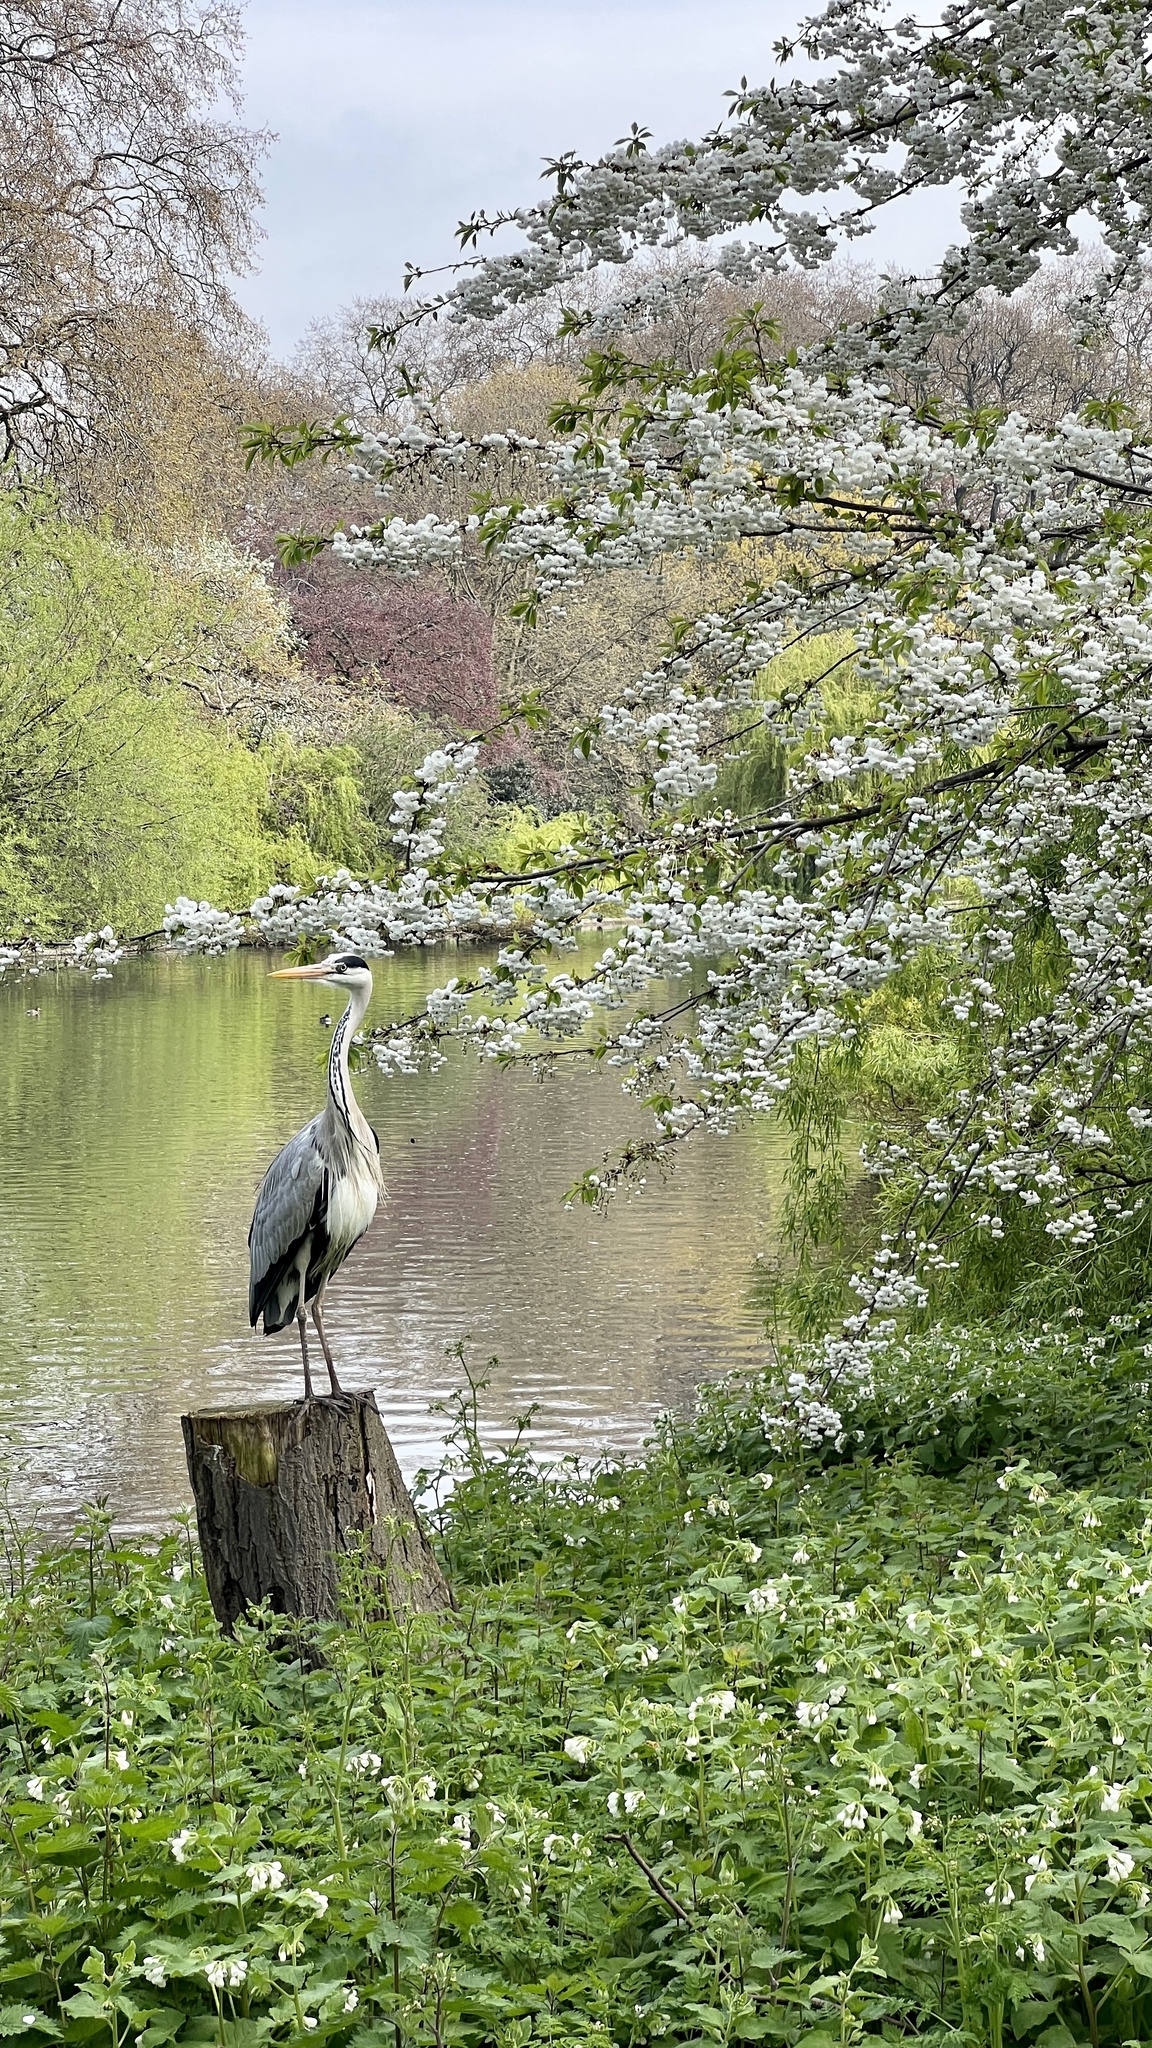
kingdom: Animalia
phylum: Chordata
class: Aves
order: Pelecaniformes
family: Ardeidae
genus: Ardea
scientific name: Ardea cinerea
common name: Grey heron
